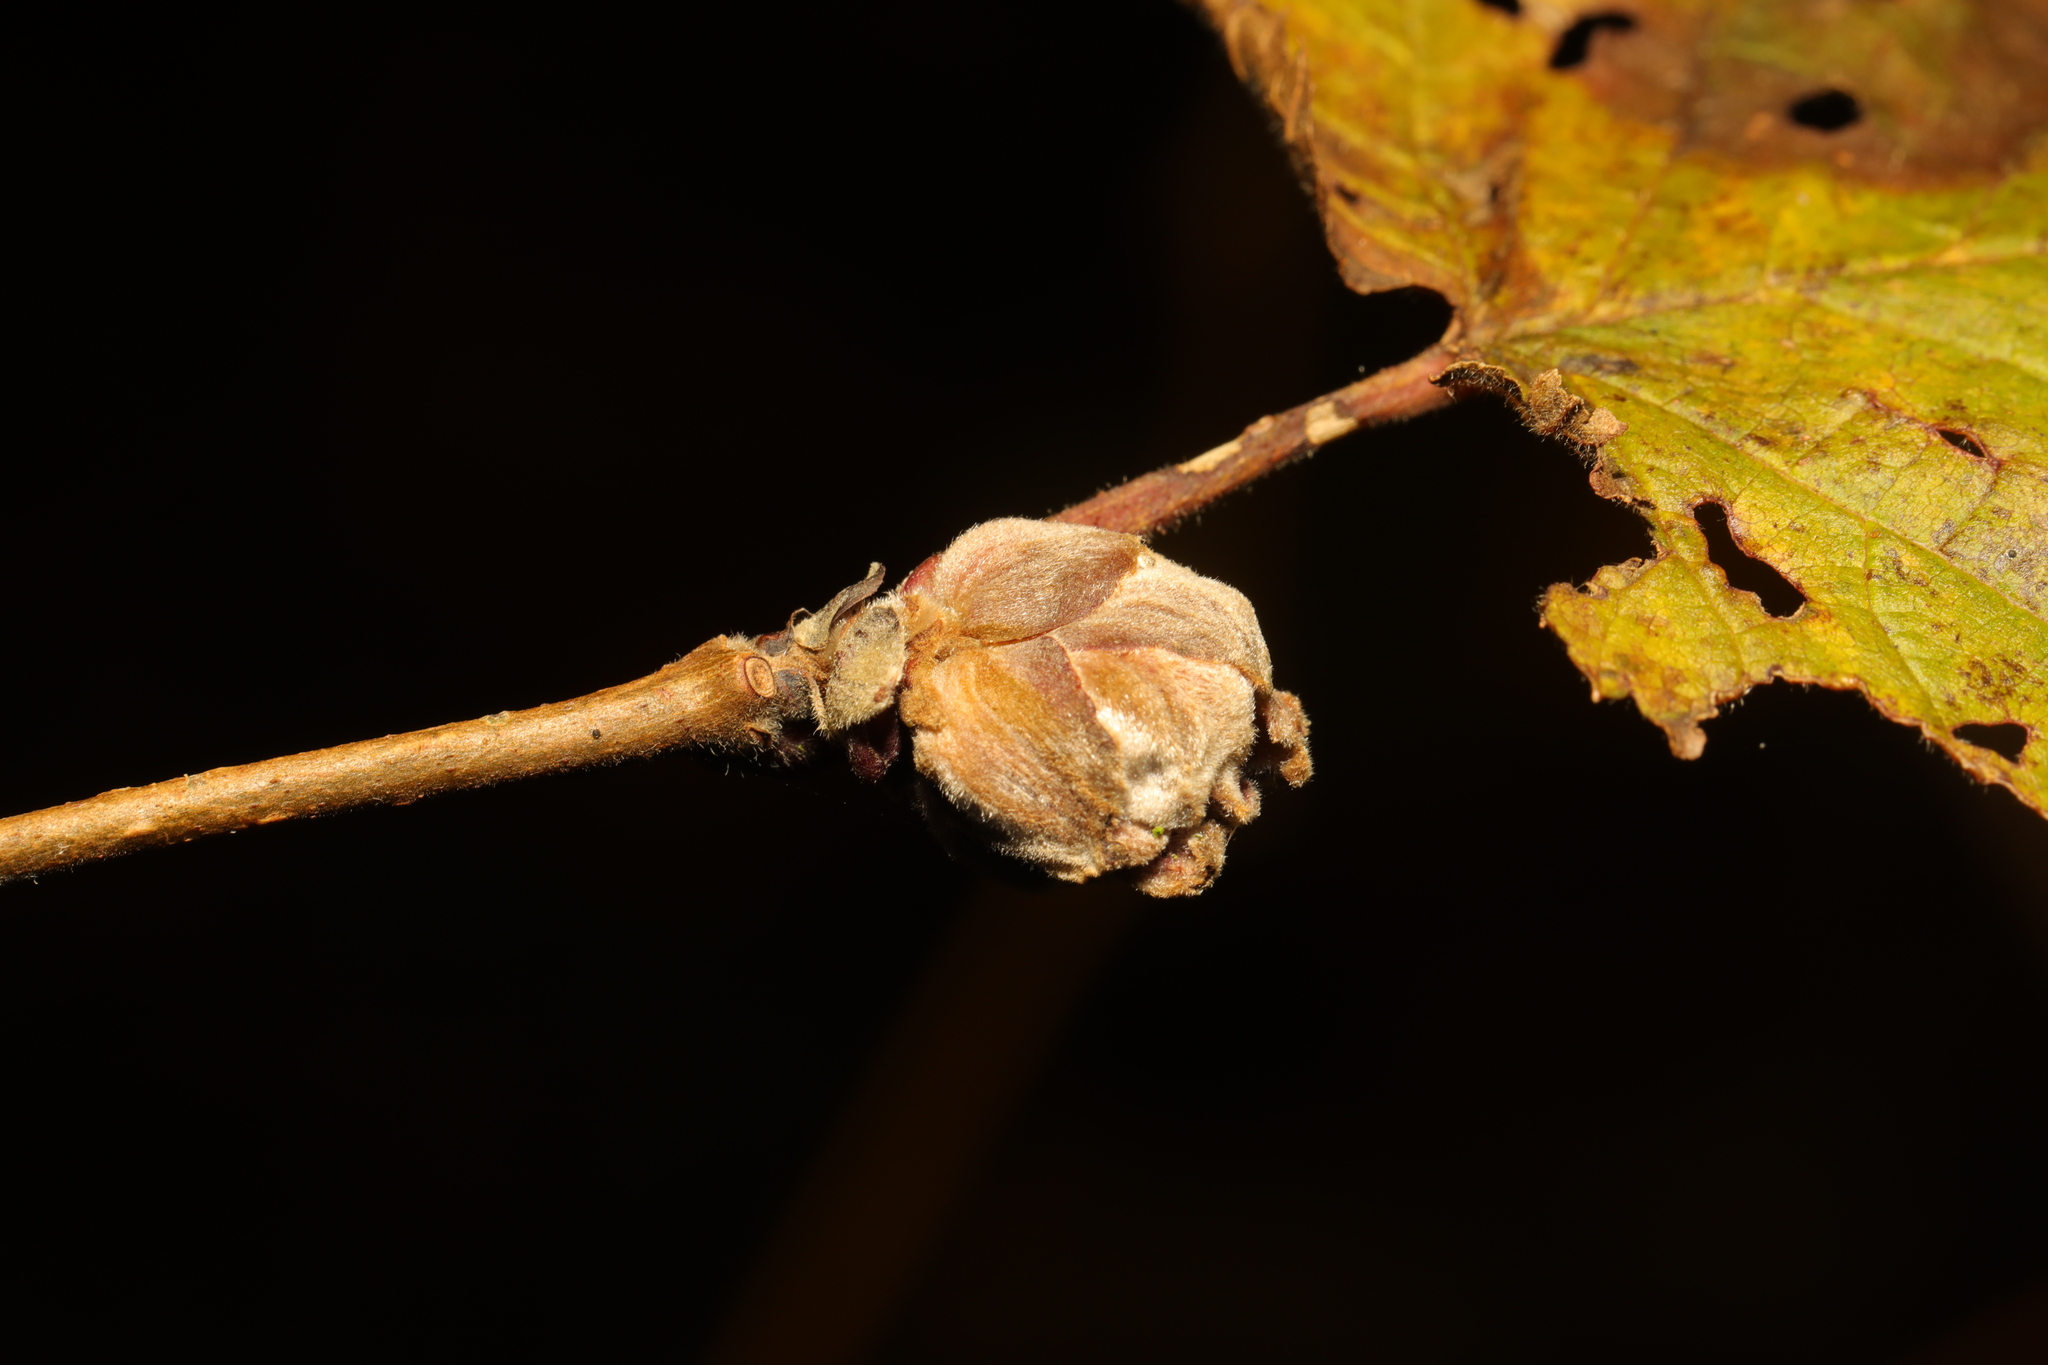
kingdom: Animalia
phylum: Arthropoda
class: Arachnida
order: Trombidiformes
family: Phytoptidae
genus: Phytoptus
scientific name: Phytoptus avellanae
